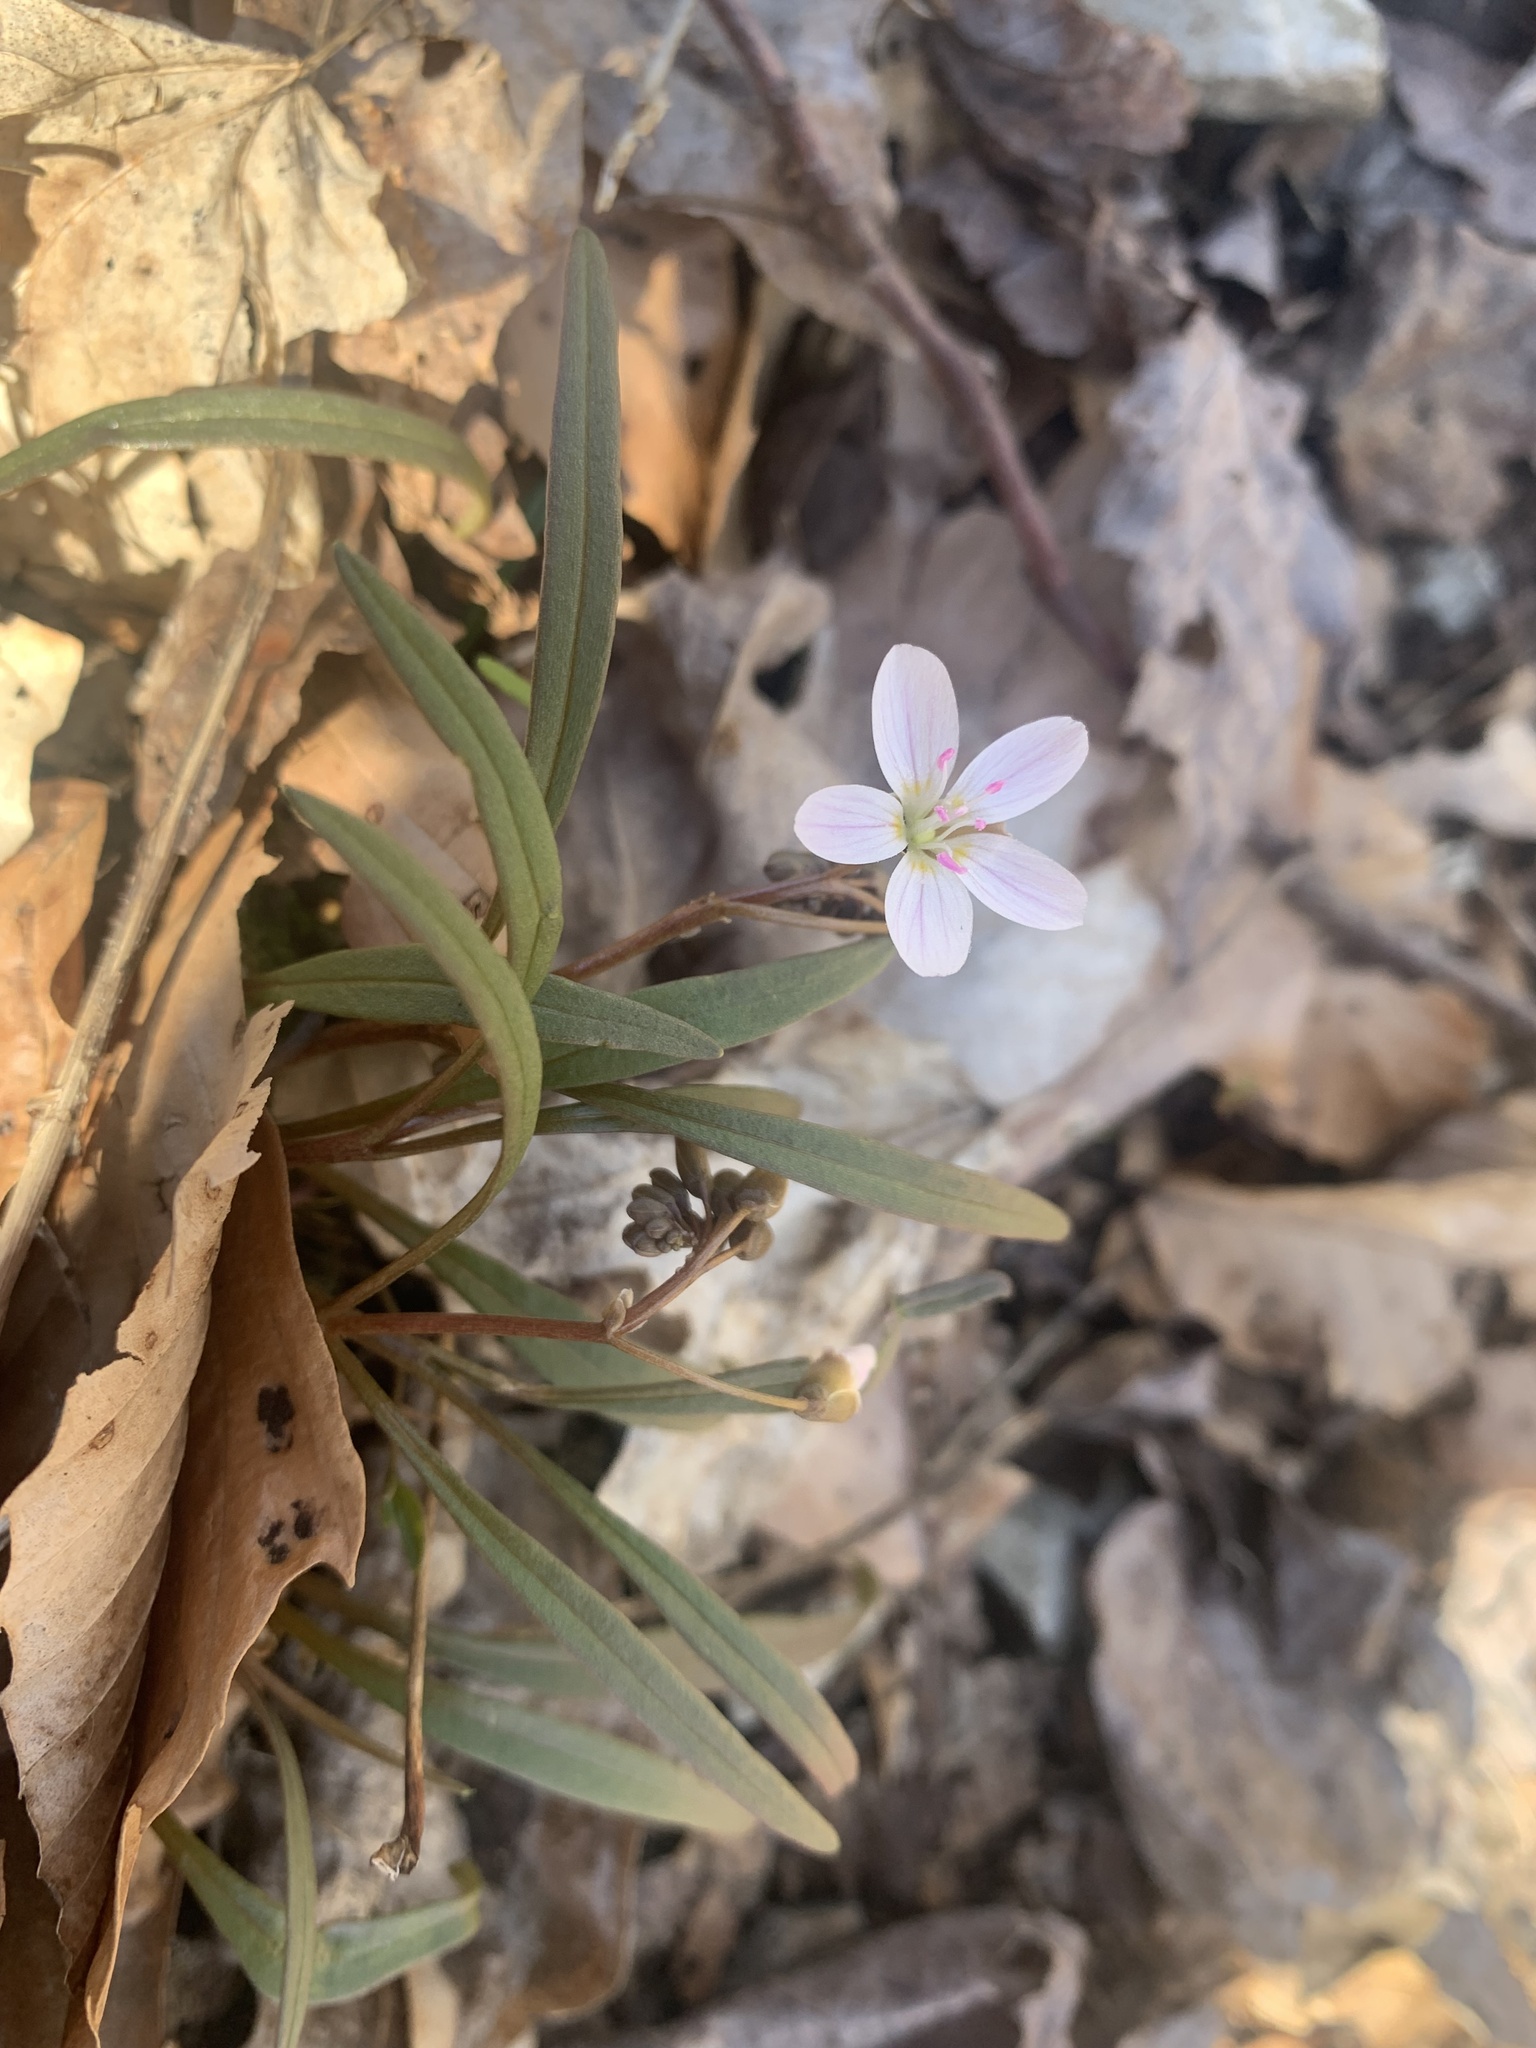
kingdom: Plantae
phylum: Tracheophyta
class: Magnoliopsida
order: Caryophyllales
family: Montiaceae
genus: Claytonia
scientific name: Claytonia virginica
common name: Virginia springbeauty
